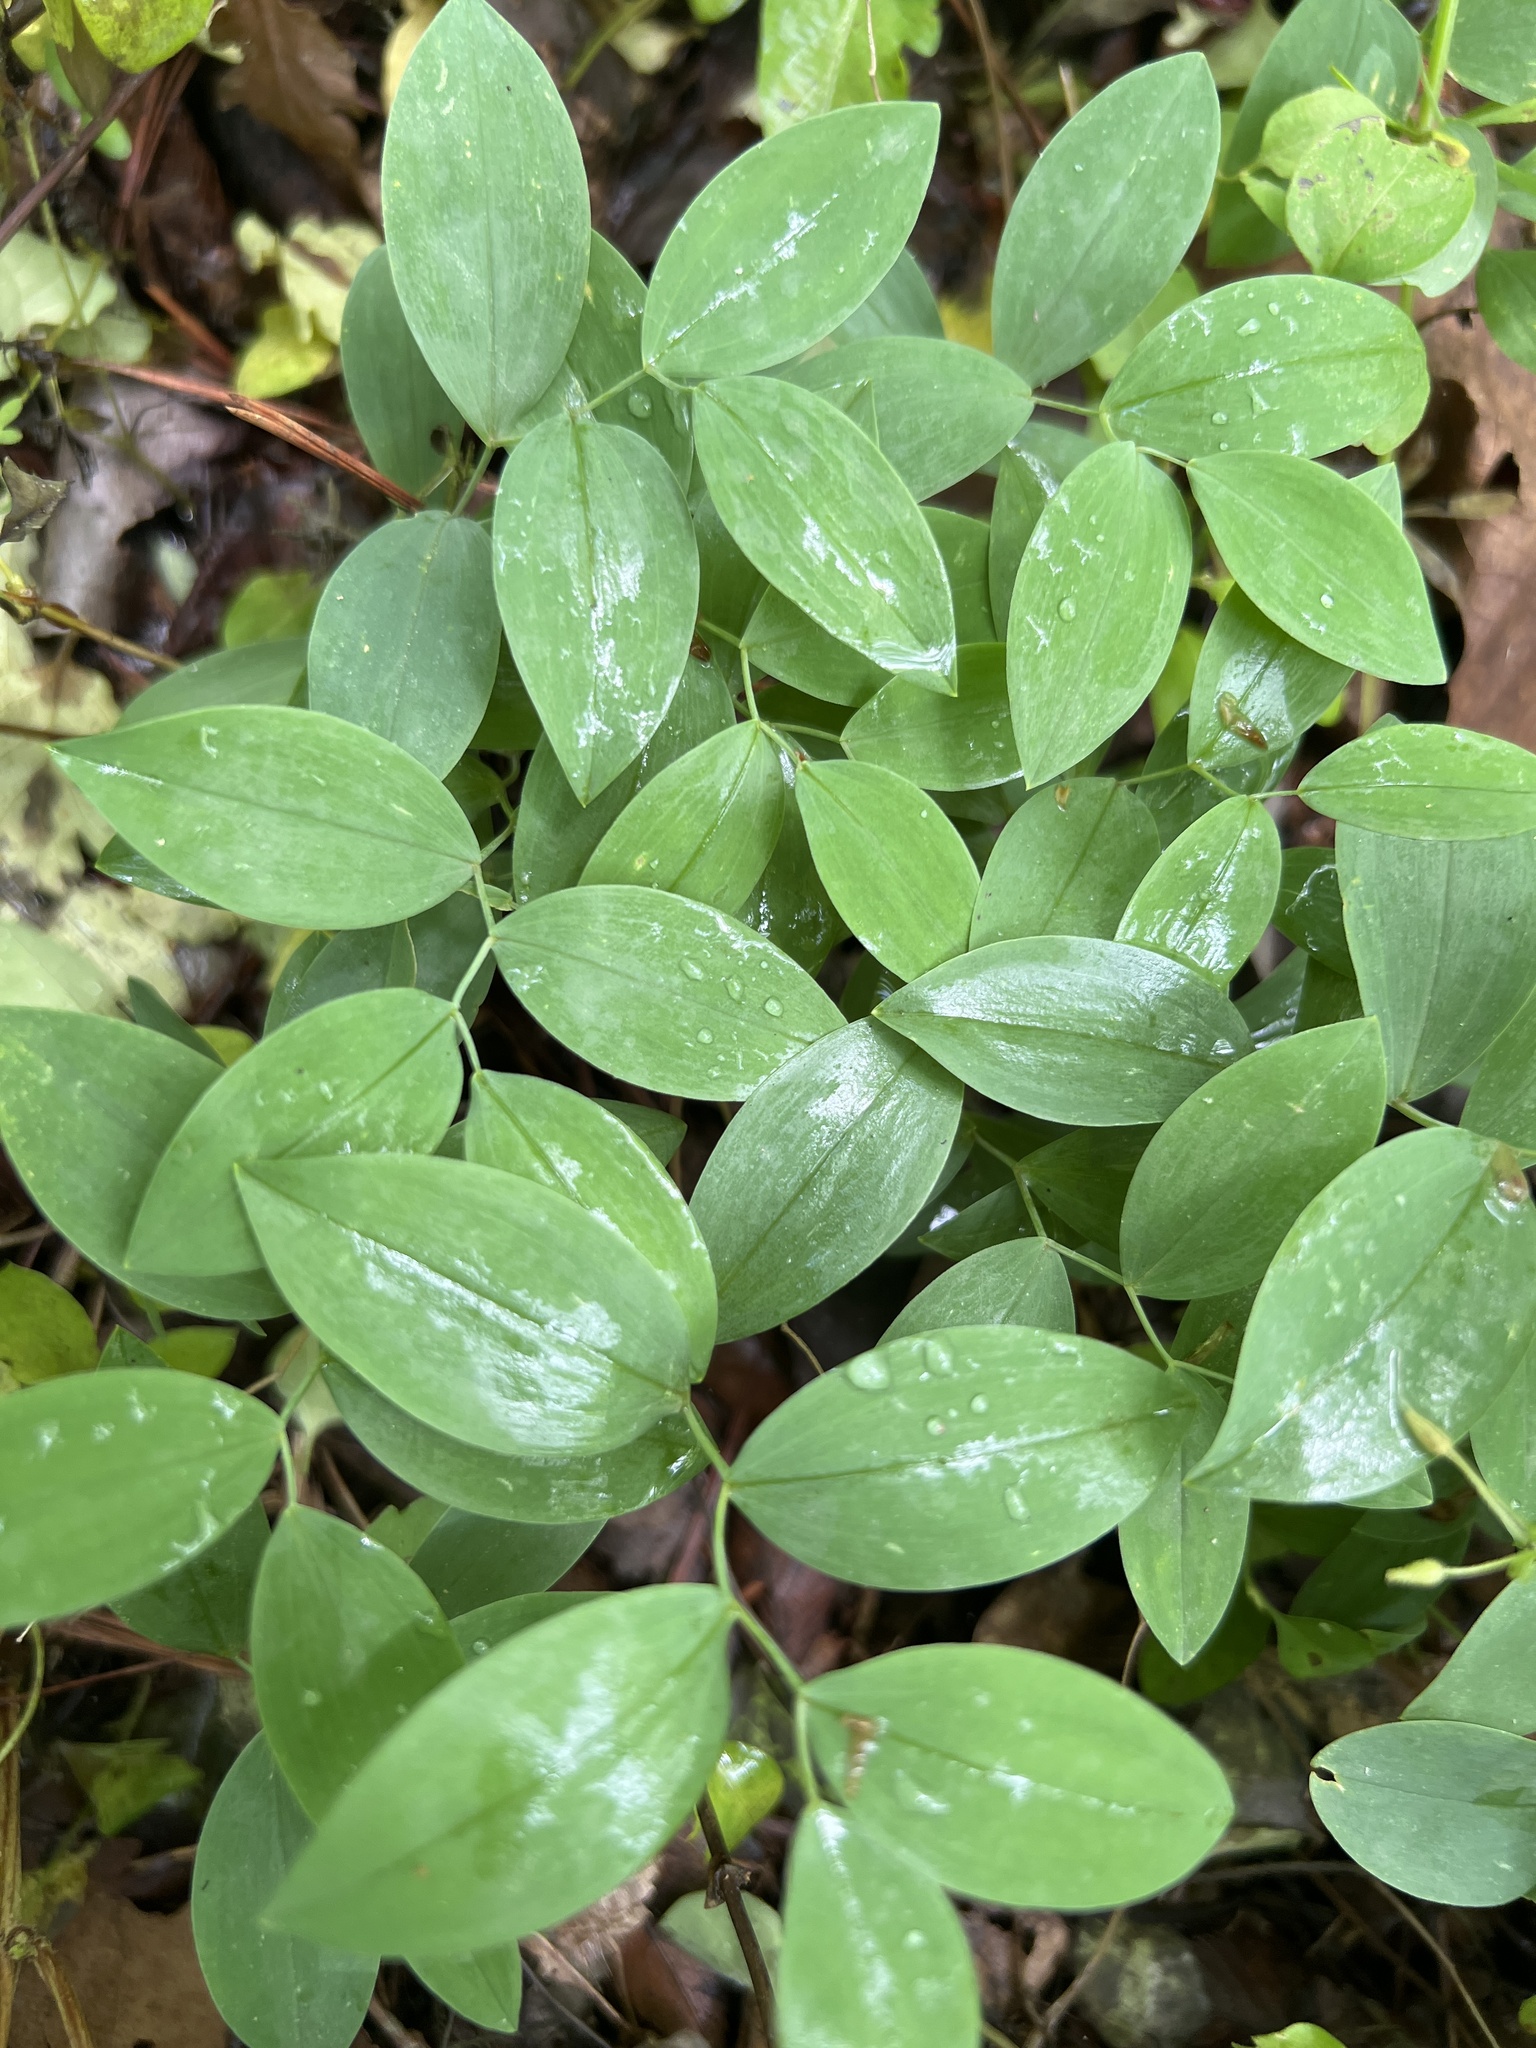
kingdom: Plantae
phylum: Tracheophyta
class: Liliopsida
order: Liliales
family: Colchicaceae
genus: Uvularia
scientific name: Uvularia sessilifolia
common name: Straw-lily
